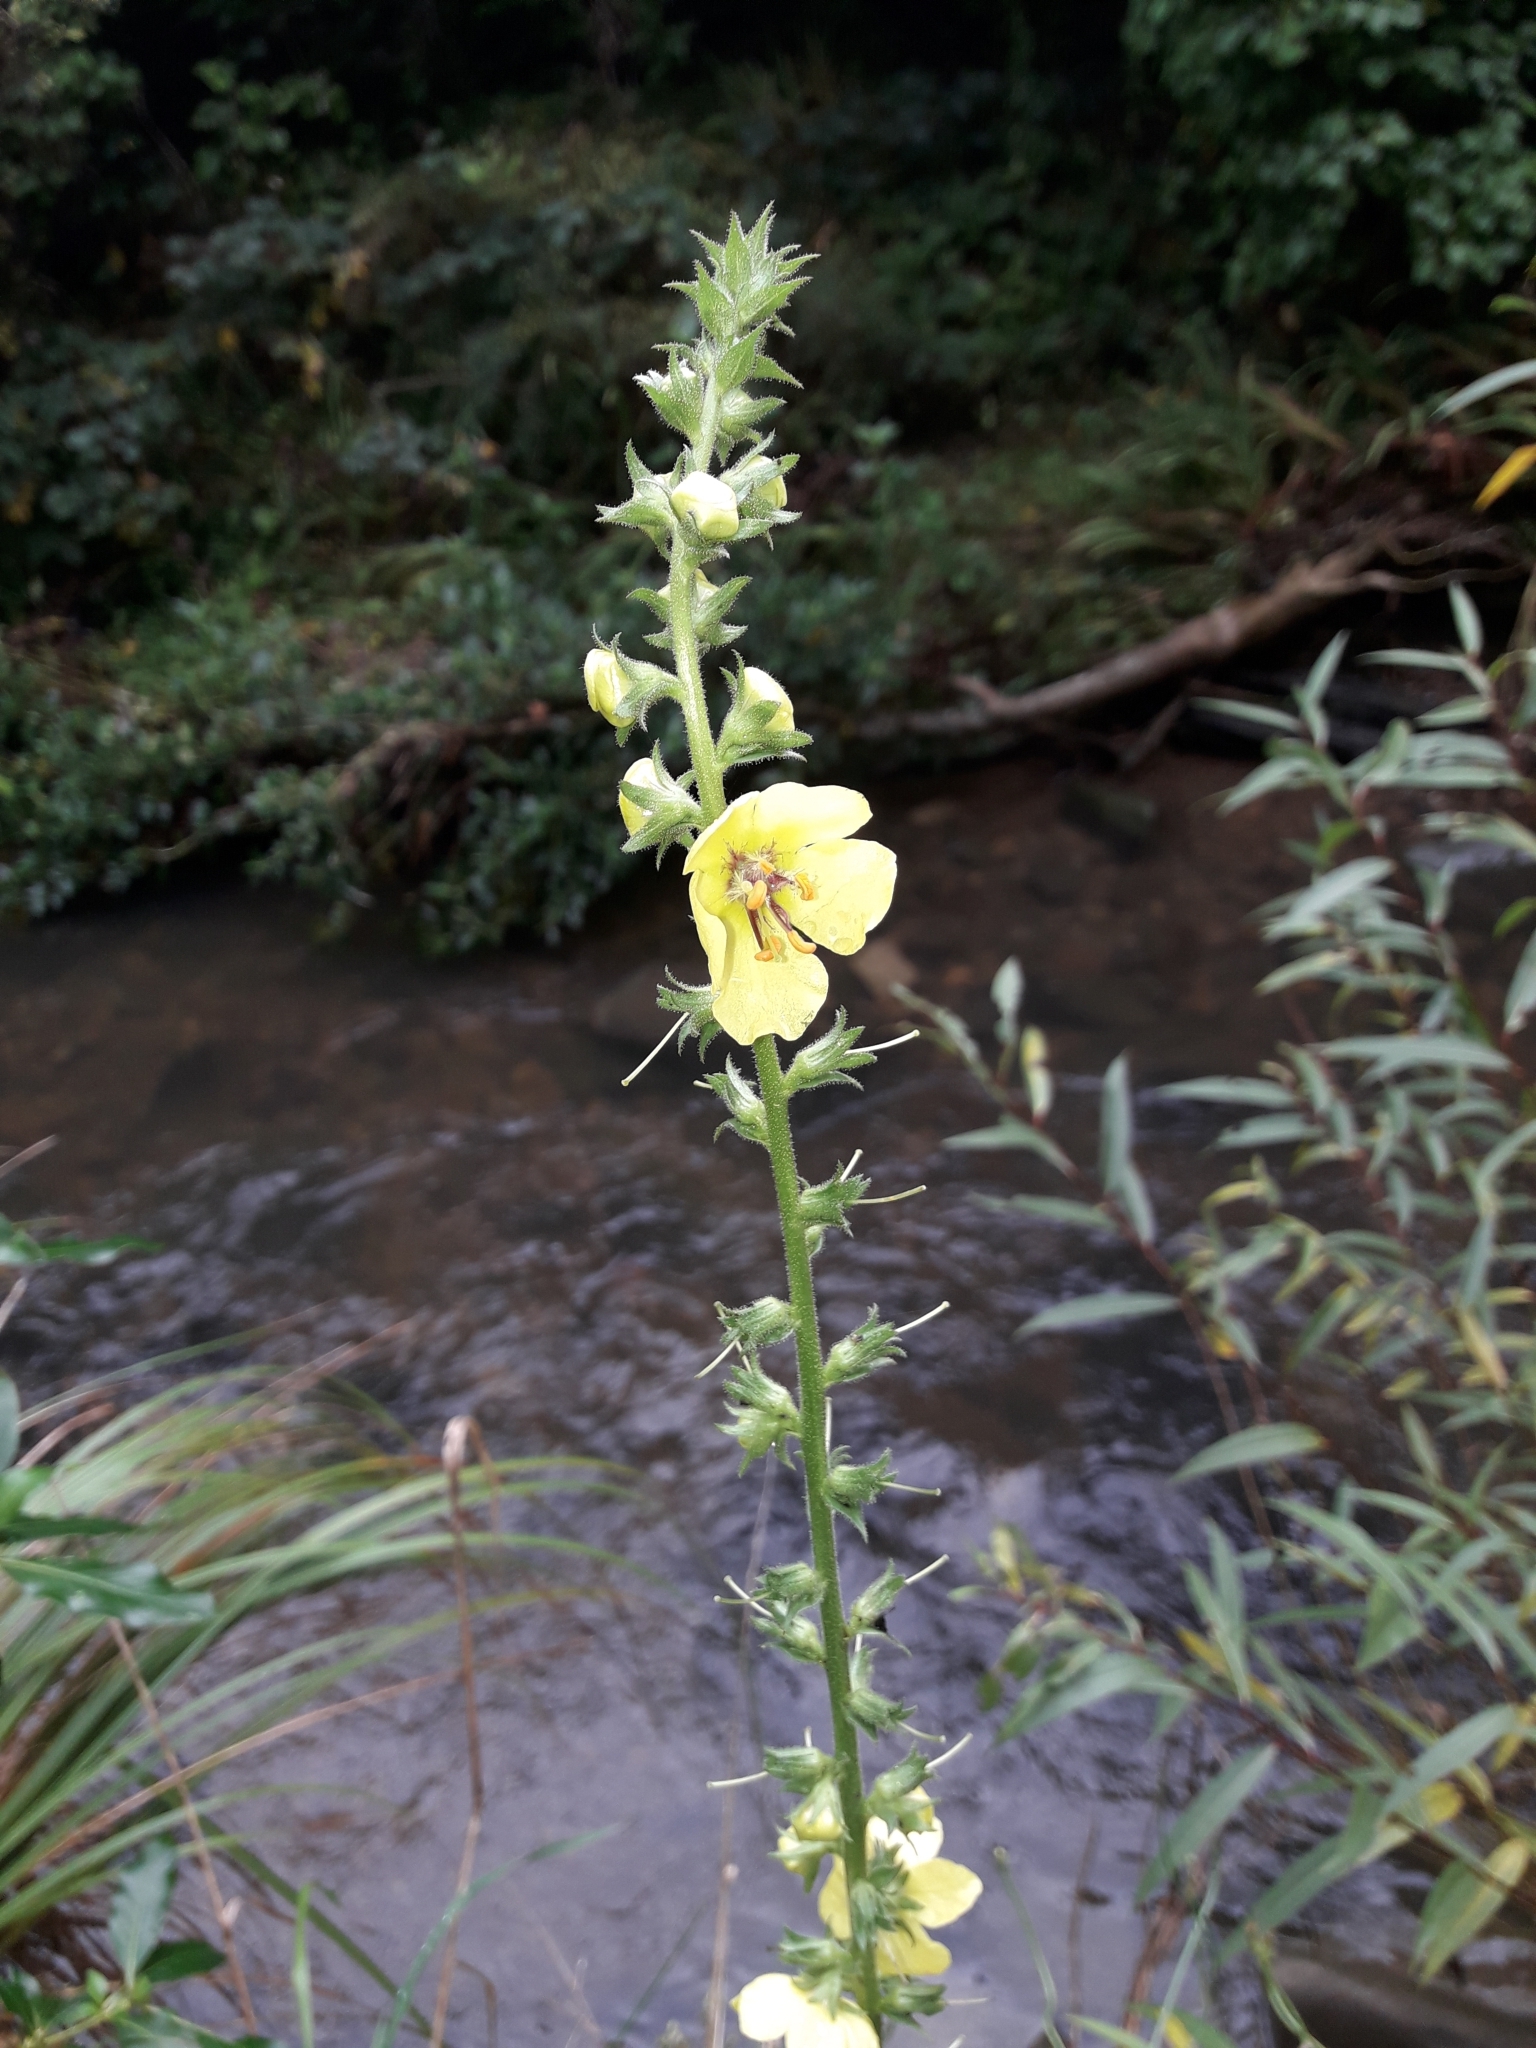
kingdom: Plantae
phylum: Tracheophyta
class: Magnoliopsida
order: Lamiales
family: Scrophulariaceae
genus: Verbascum
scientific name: Verbascum virgatum
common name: Twiggy mullein
